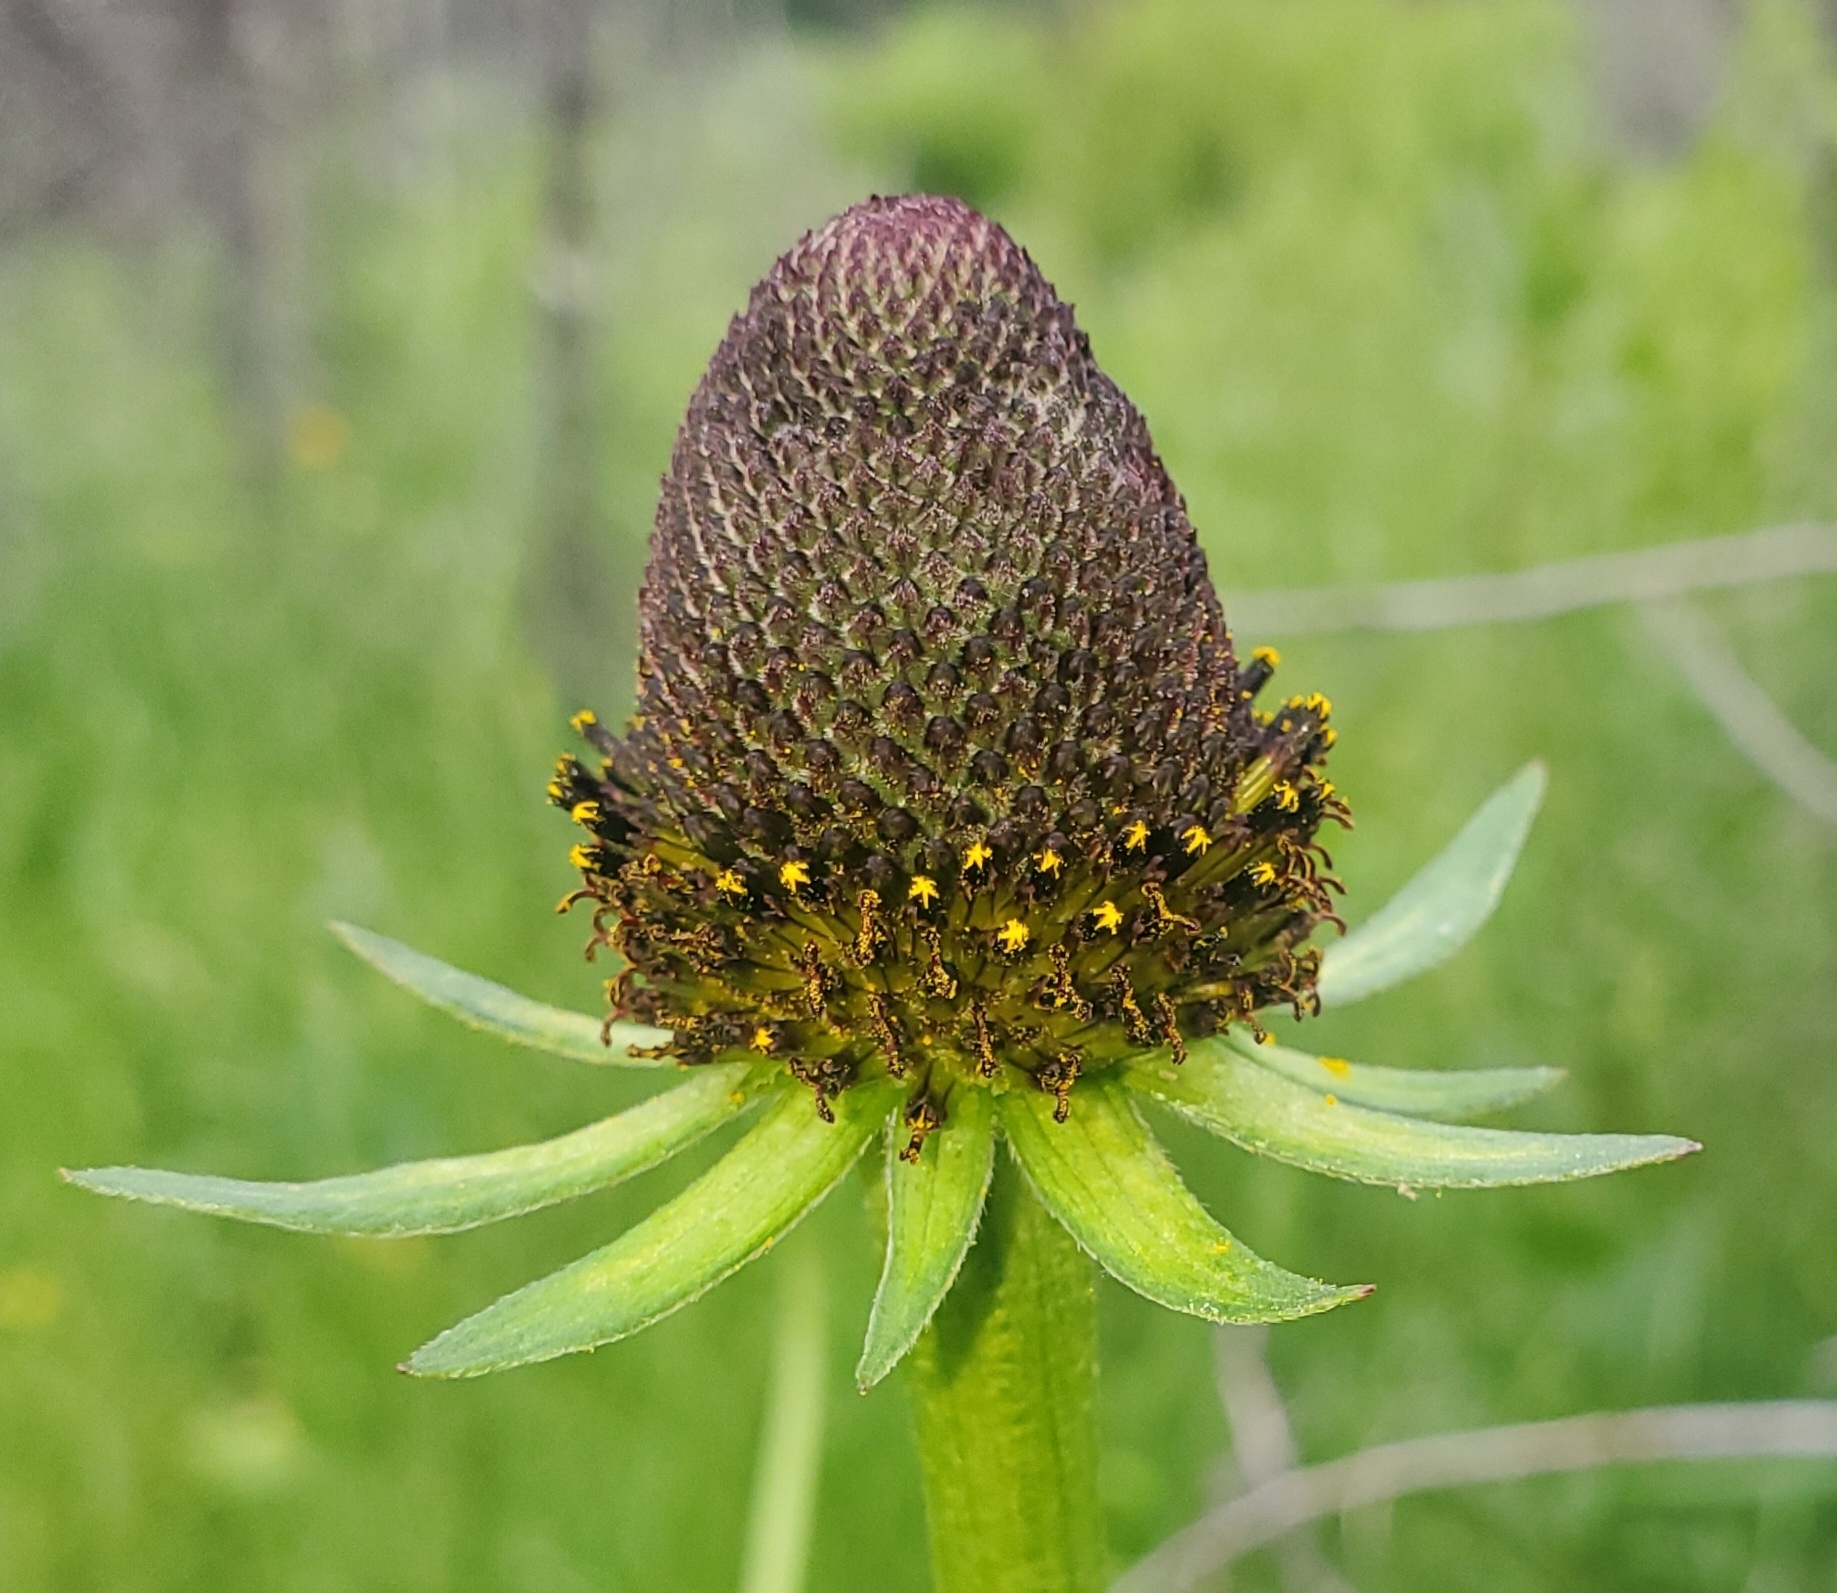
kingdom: Plantae
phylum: Tracheophyta
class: Magnoliopsida
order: Asterales
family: Asteraceae
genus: Rudbeckia
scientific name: Rudbeckia occidentalis
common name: Western coneflower
